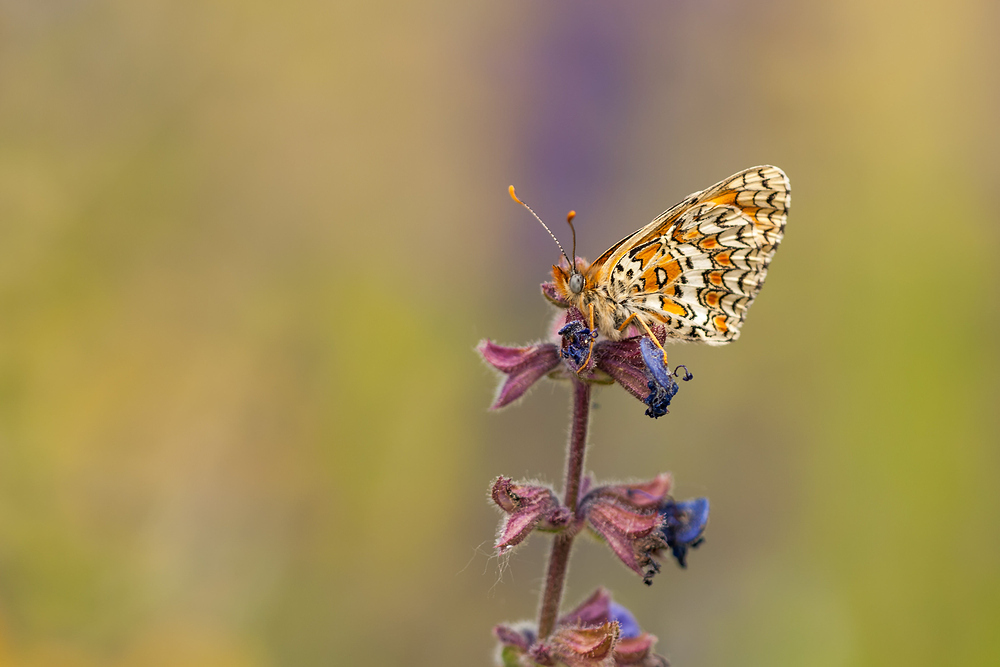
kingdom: Animalia
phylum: Arthropoda
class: Insecta
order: Lepidoptera
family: Nymphalidae
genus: Melitaea
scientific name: Melitaea phoebe
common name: Knapweed fritillary
